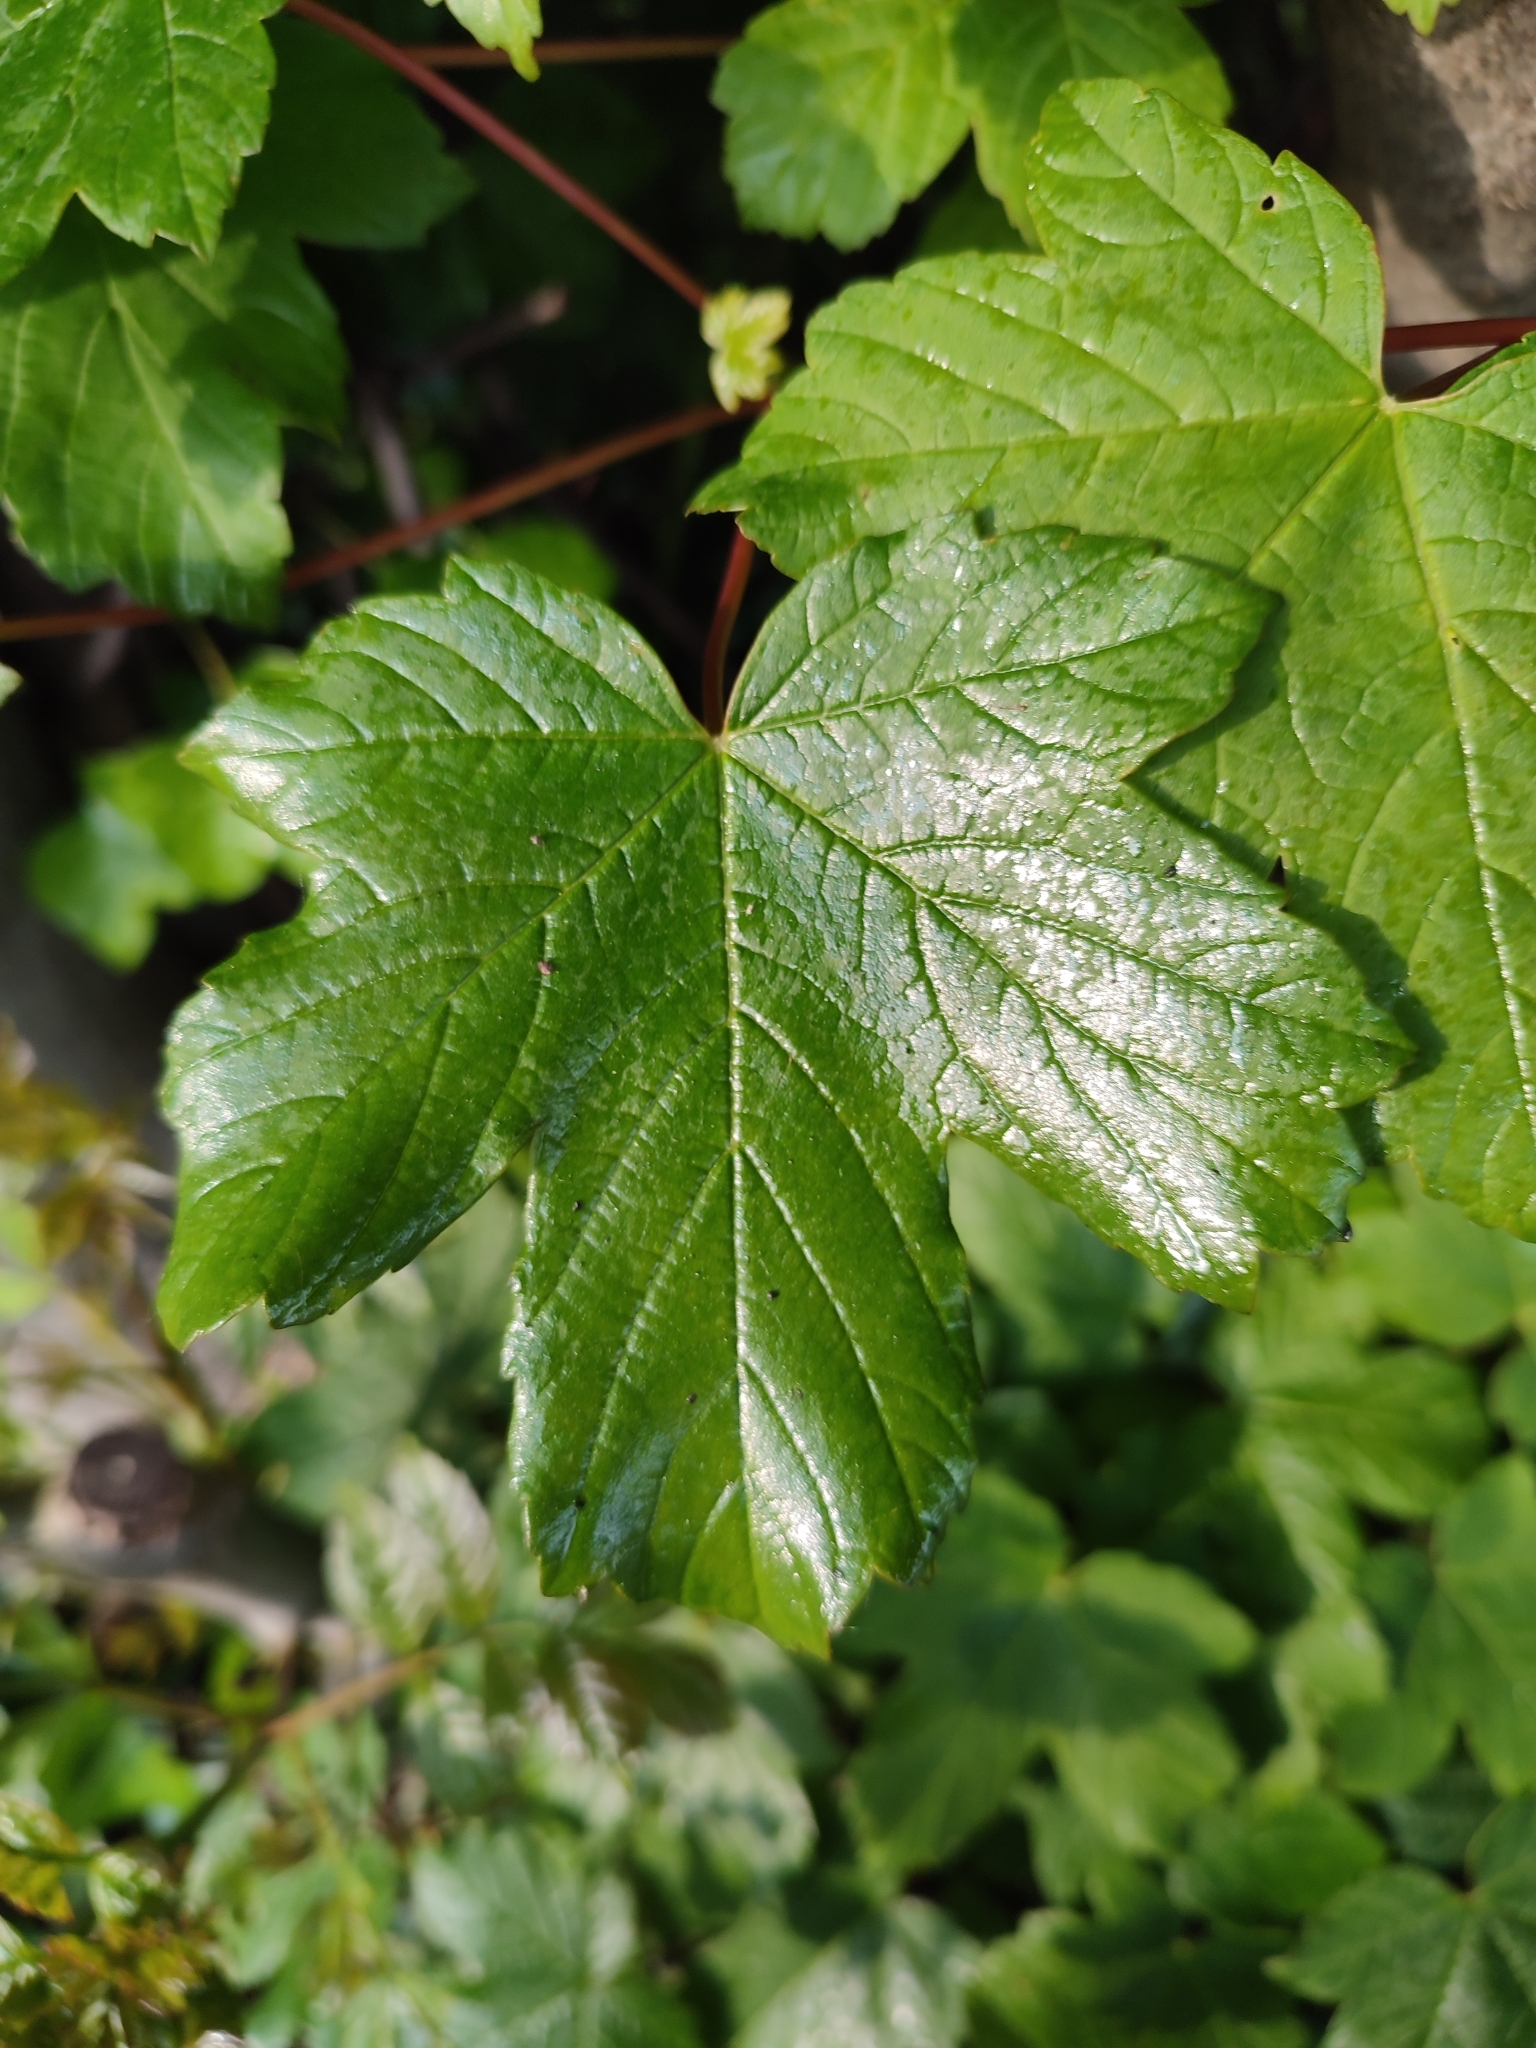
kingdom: Plantae
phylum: Tracheophyta
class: Magnoliopsida
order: Sapindales
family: Sapindaceae
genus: Acer
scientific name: Acer pseudoplatanus
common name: Sycamore
